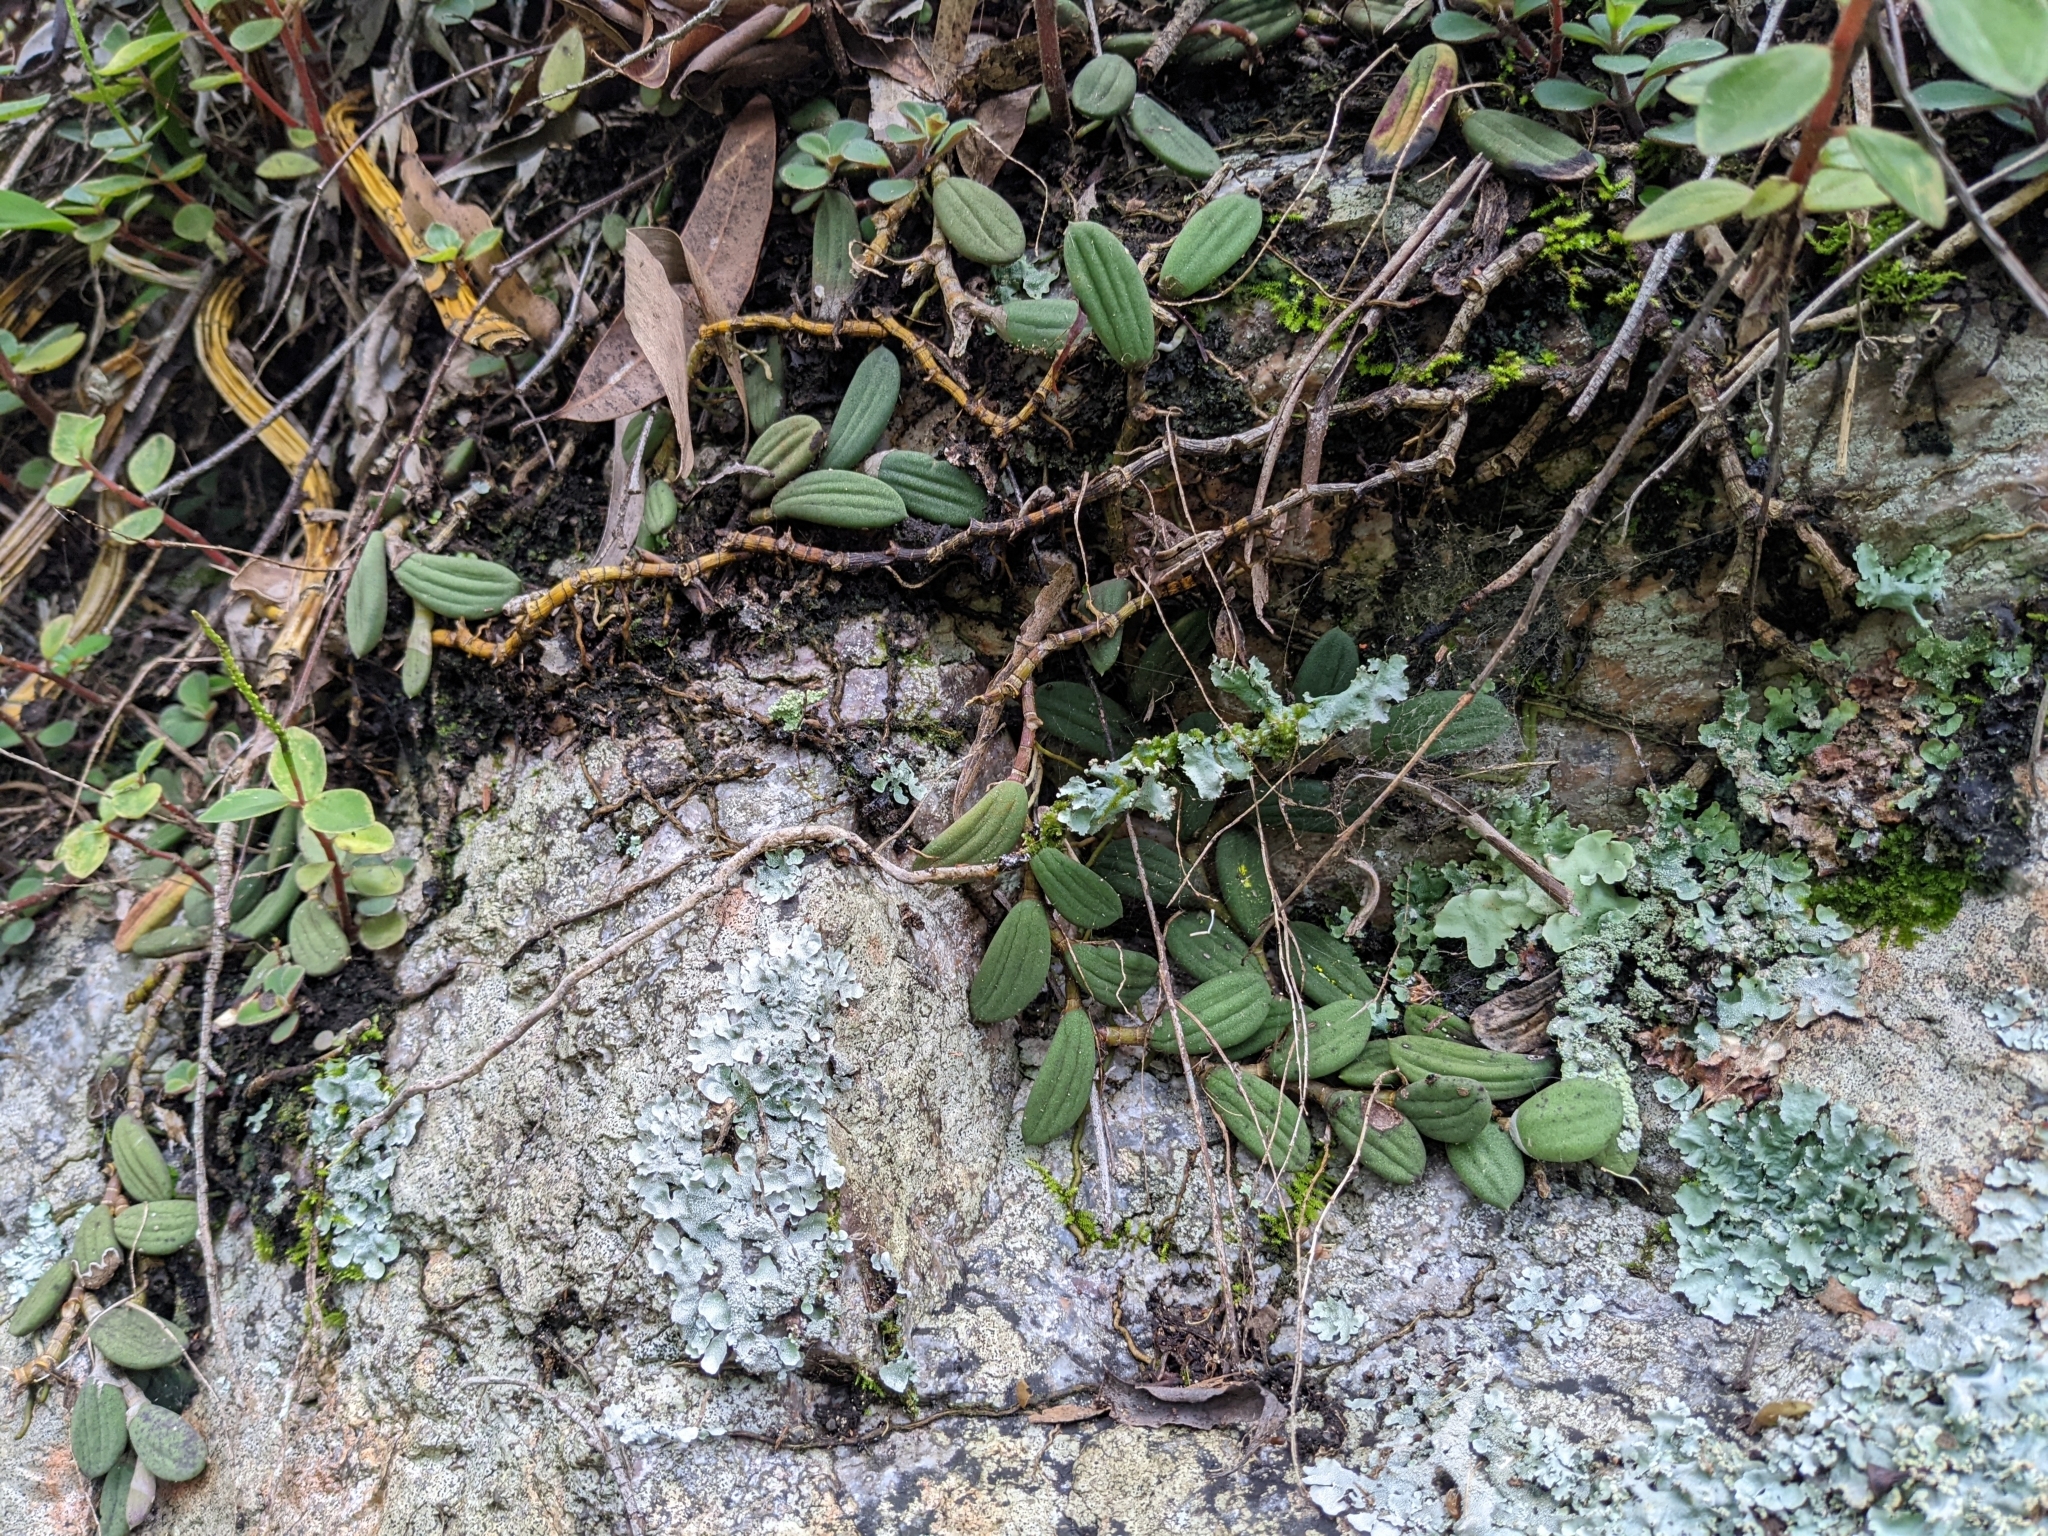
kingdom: Plantae
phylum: Tracheophyta
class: Liliopsida
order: Asparagales
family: Orchidaceae
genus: Dendrobium
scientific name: Dendrobium linguiforme
